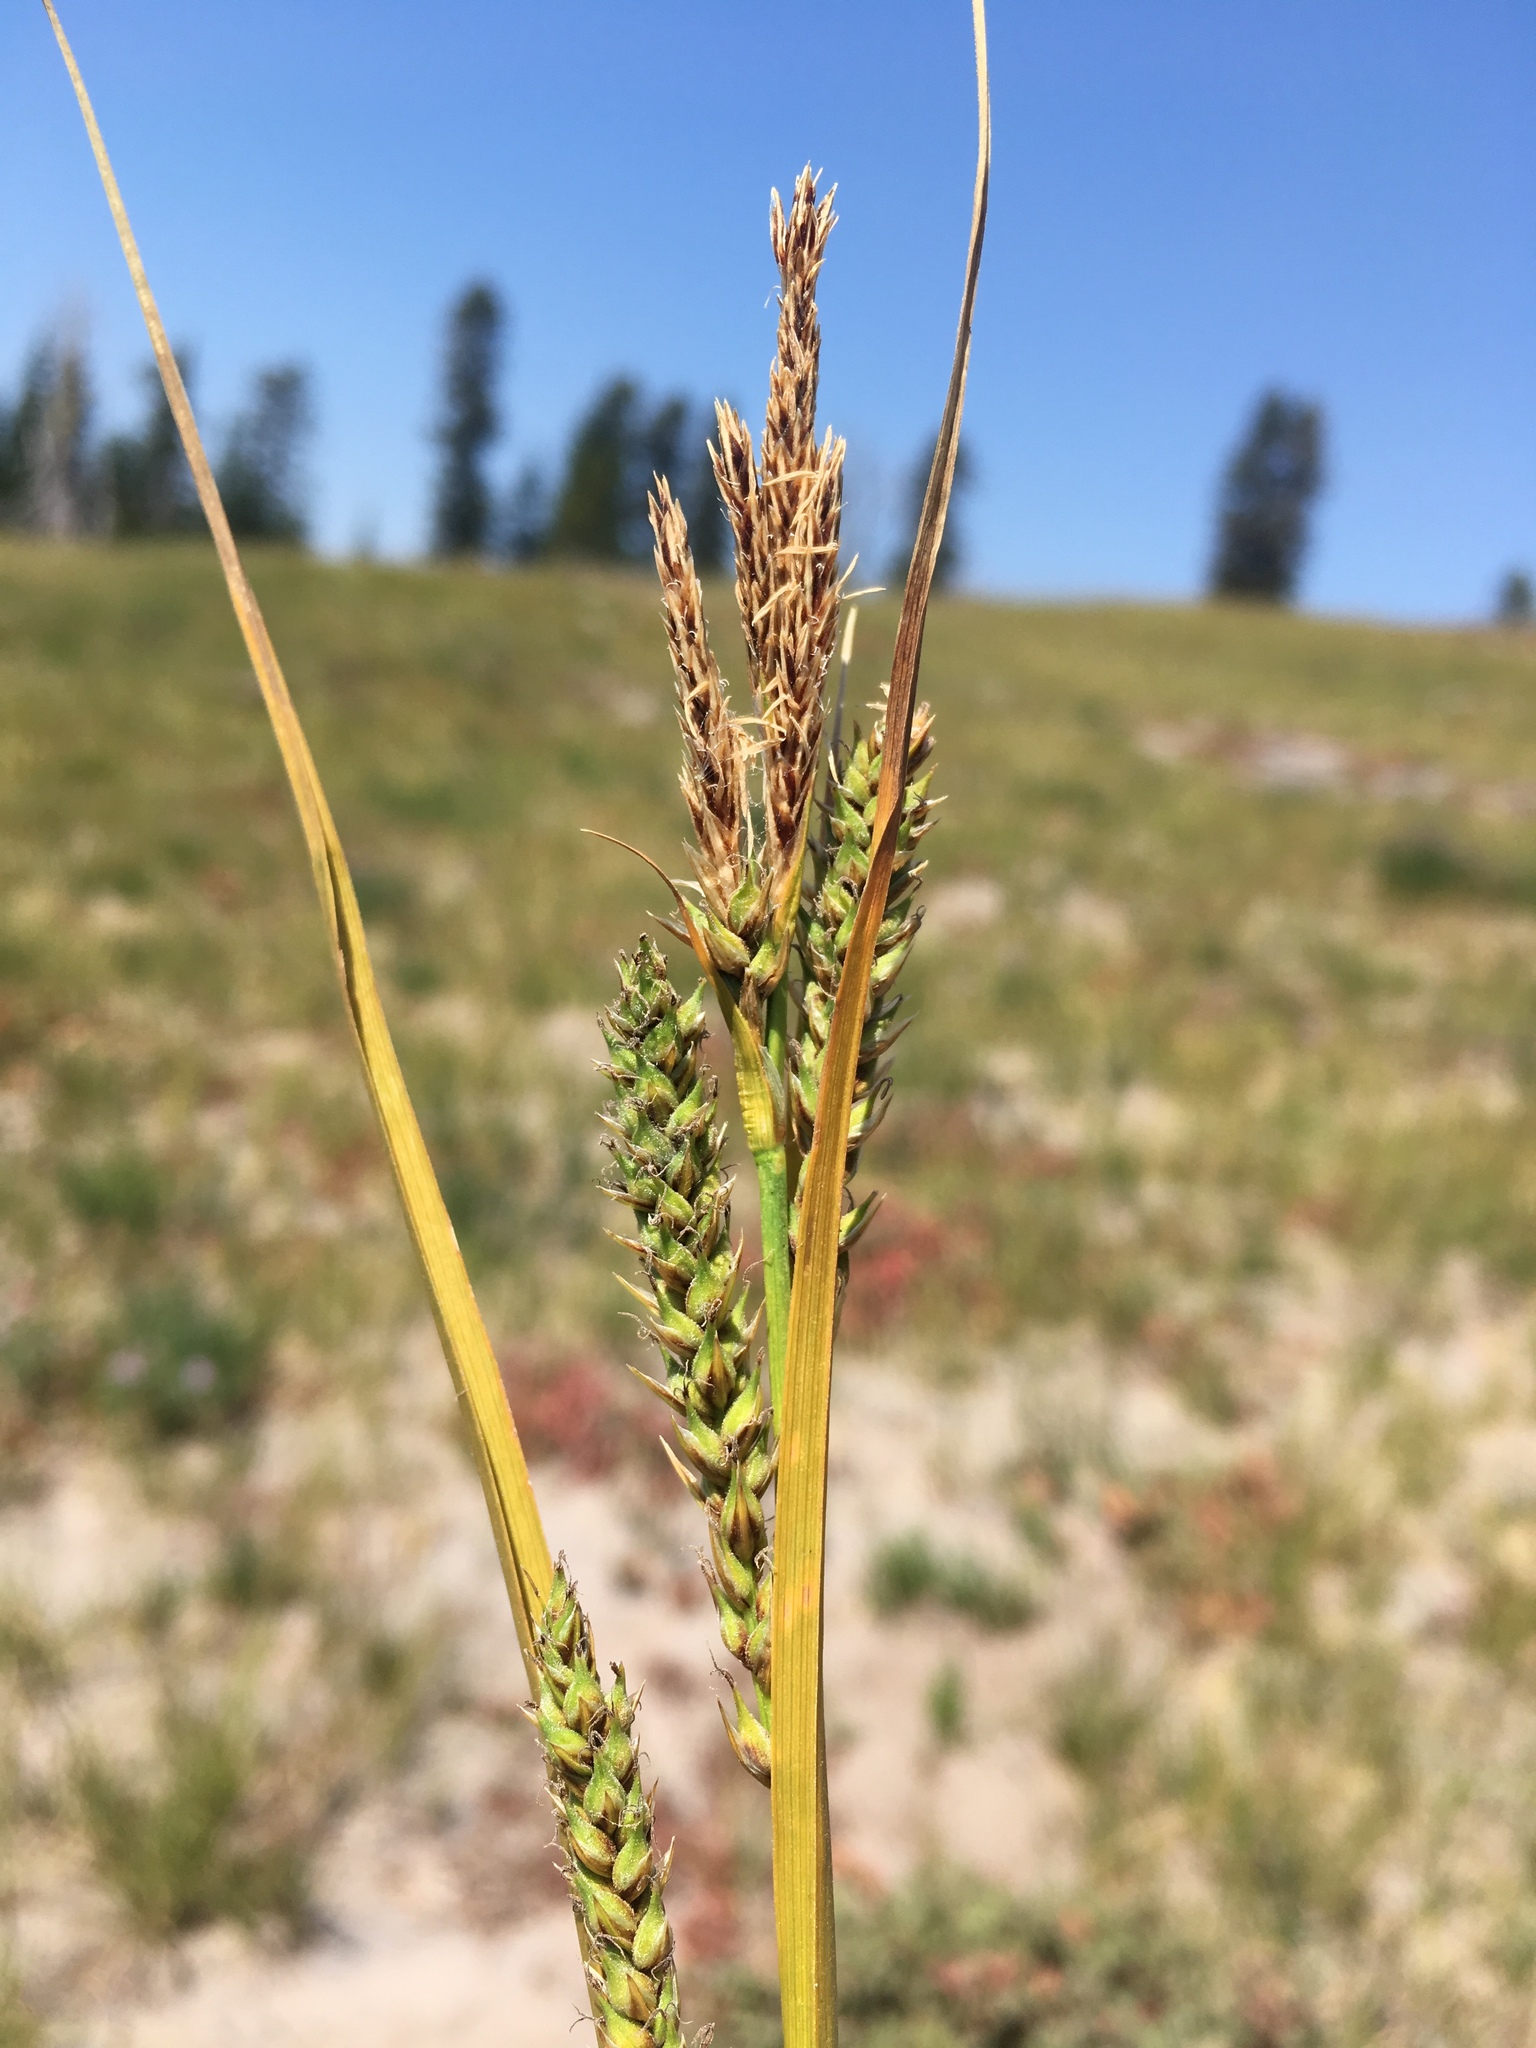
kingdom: Plantae
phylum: Tracheophyta
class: Liliopsida
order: Poales
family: Cyperaceae
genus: Carex
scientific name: Carex halliana
